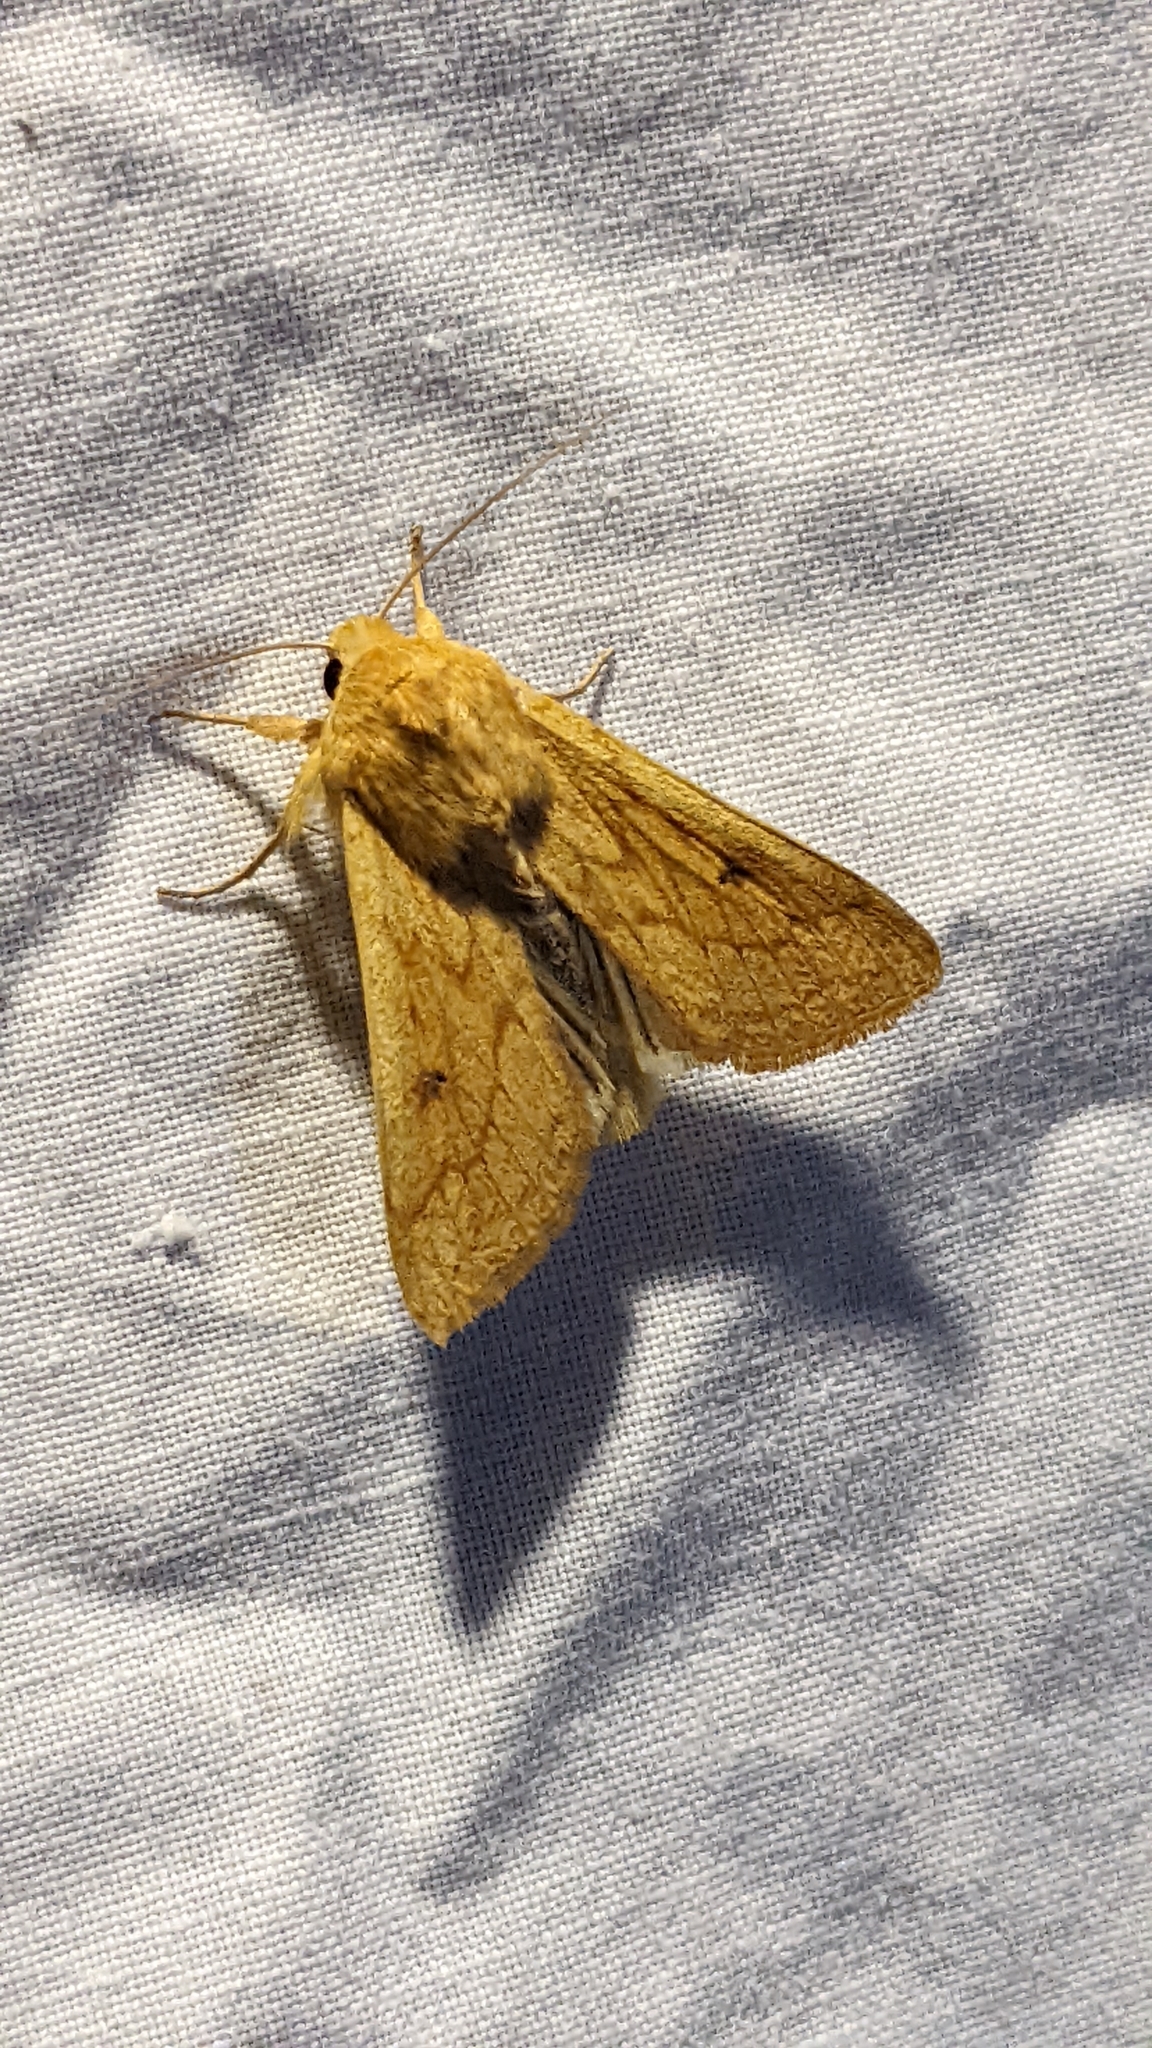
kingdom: Animalia
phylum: Arthropoda
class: Insecta
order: Lepidoptera
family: Noctuidae
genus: Mythimna
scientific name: Mythimna vitellina
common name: Delicate
